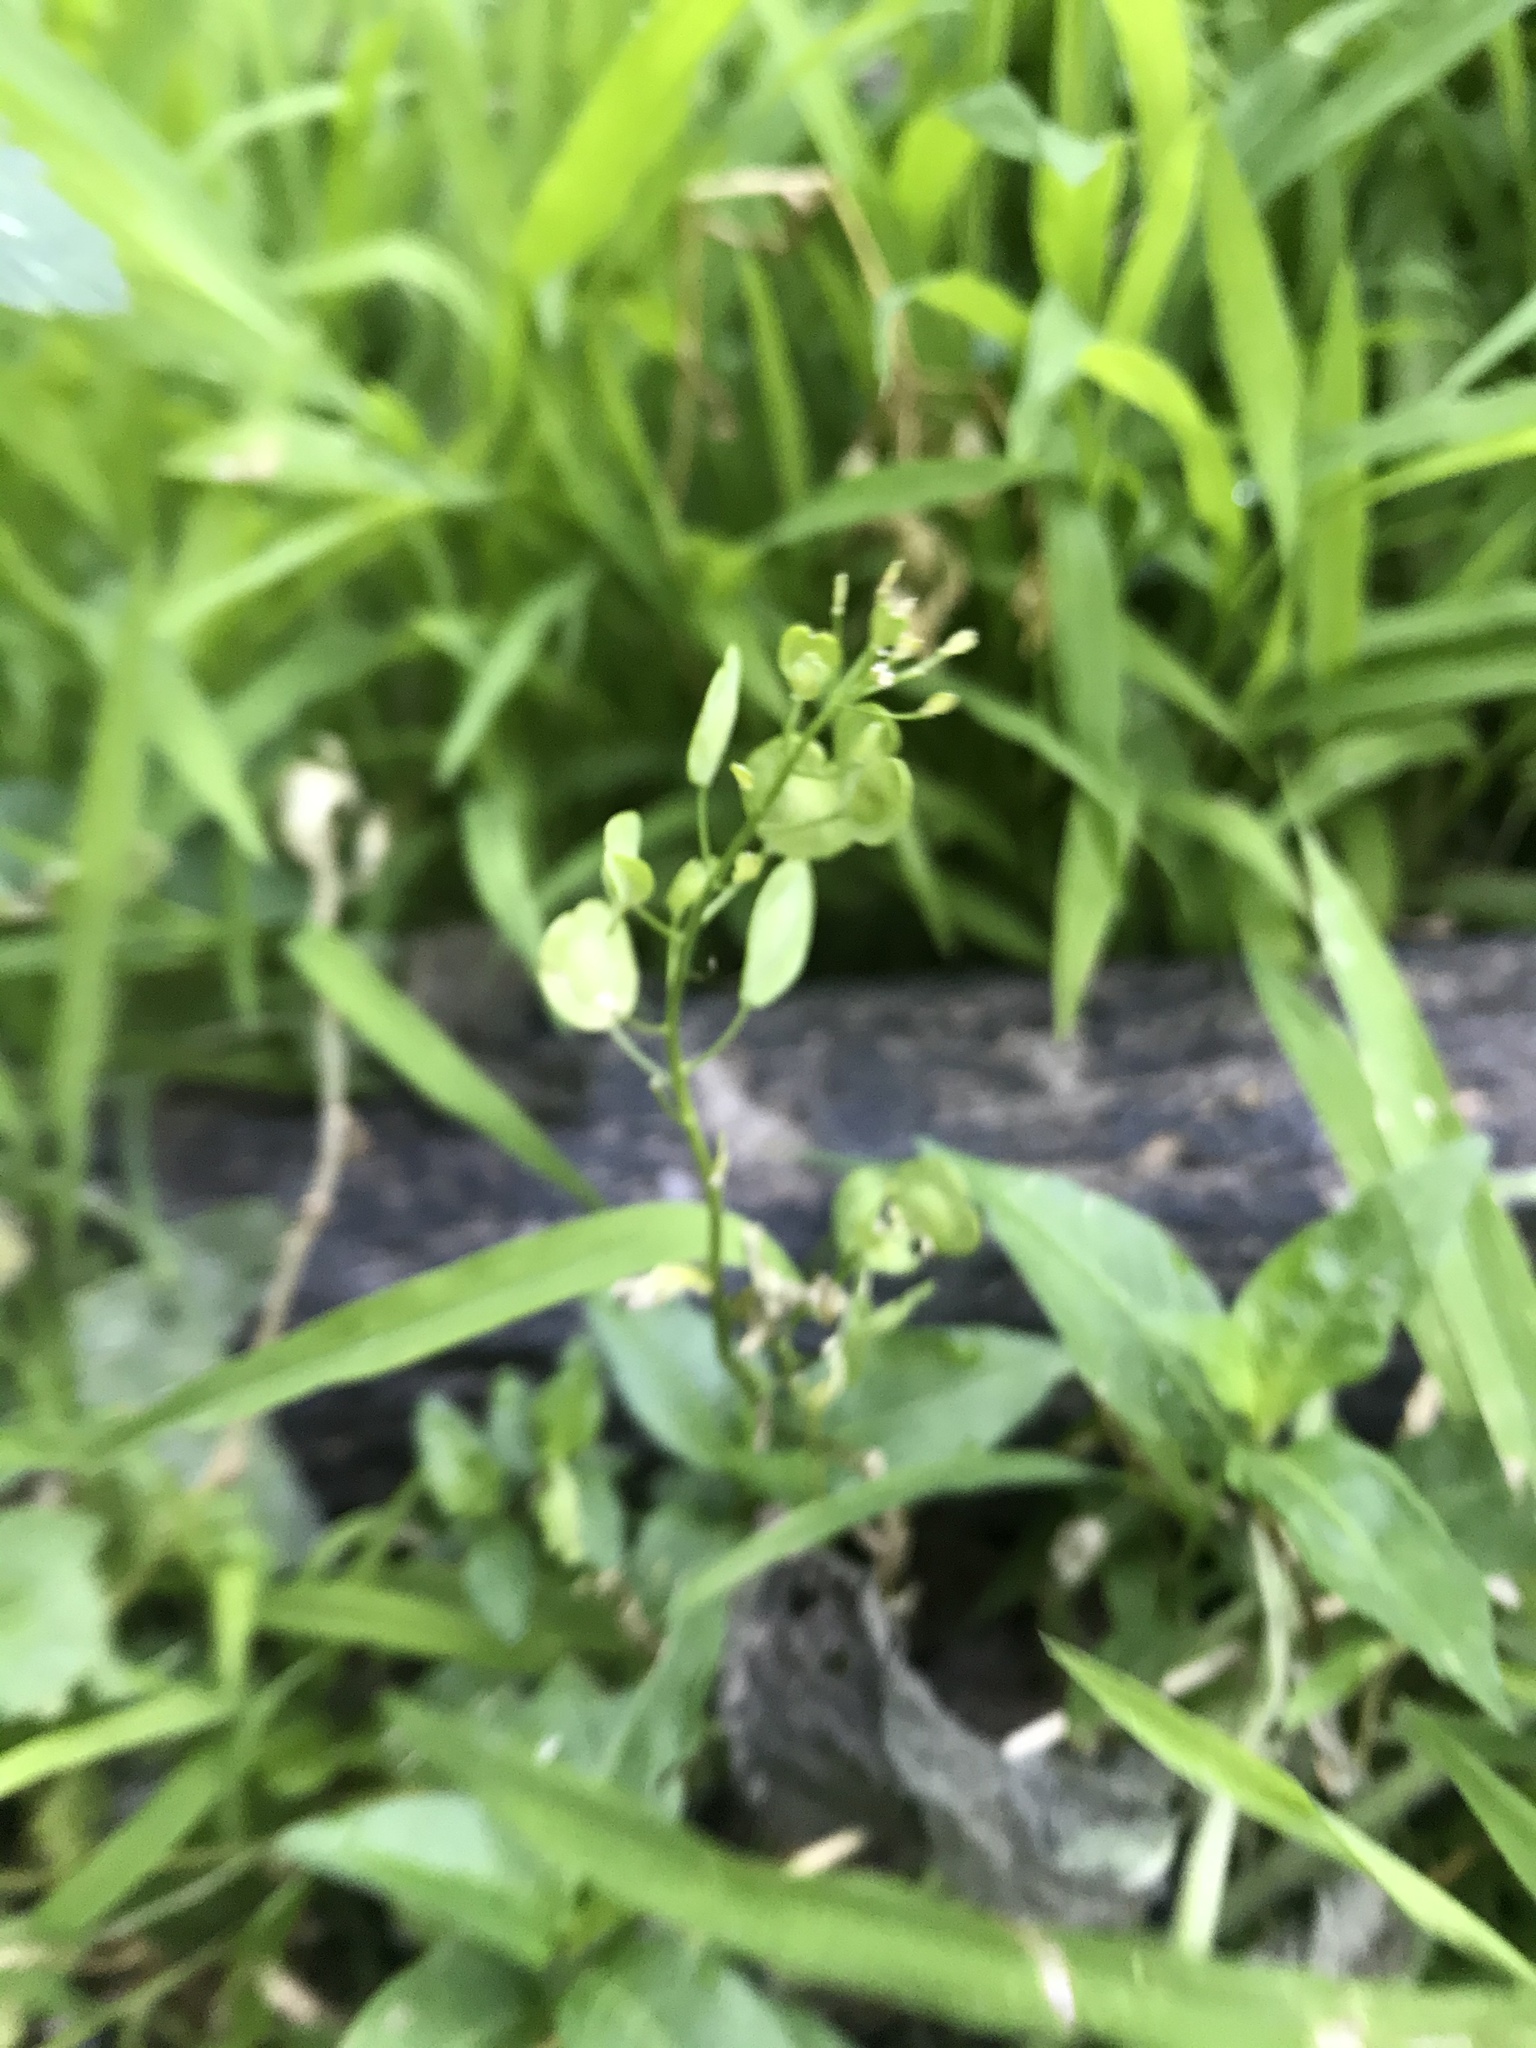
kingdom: Plantae
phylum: Tracheophyta
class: Magnoliopsida
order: Brassicales
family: Brassicaceae
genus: Thlaspi
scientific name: Thlaspi arvense
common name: Field pennycress
